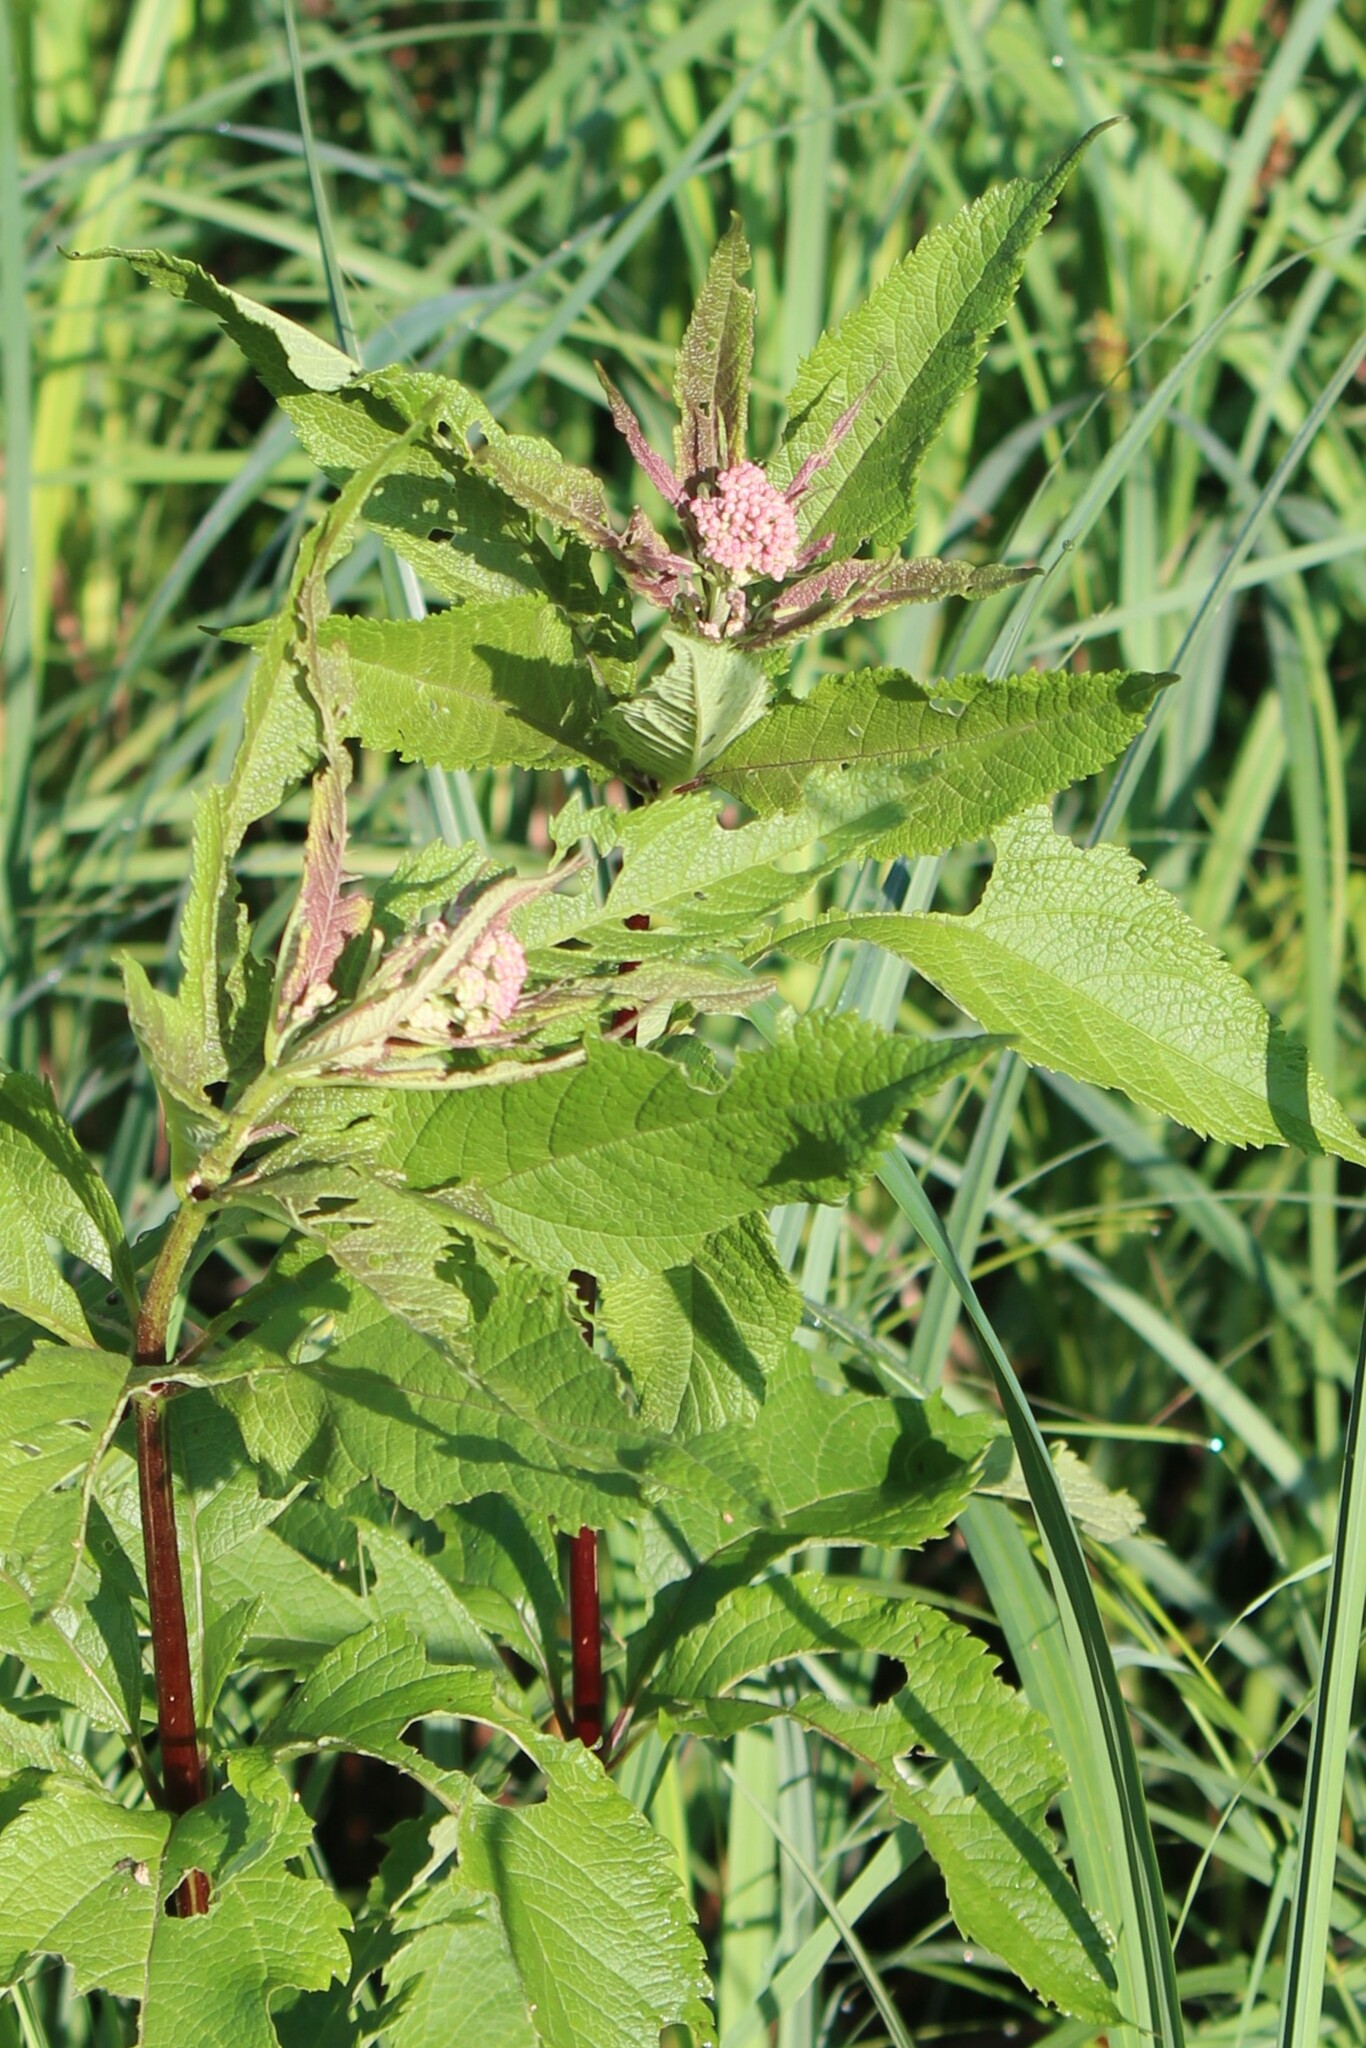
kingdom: Plantae
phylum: Tracheophyta
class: Magnoliopsida
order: Asterales
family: Asteraceae
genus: Eutrochium
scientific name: Eutrochium maculatum
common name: Spotted joe pye weed
